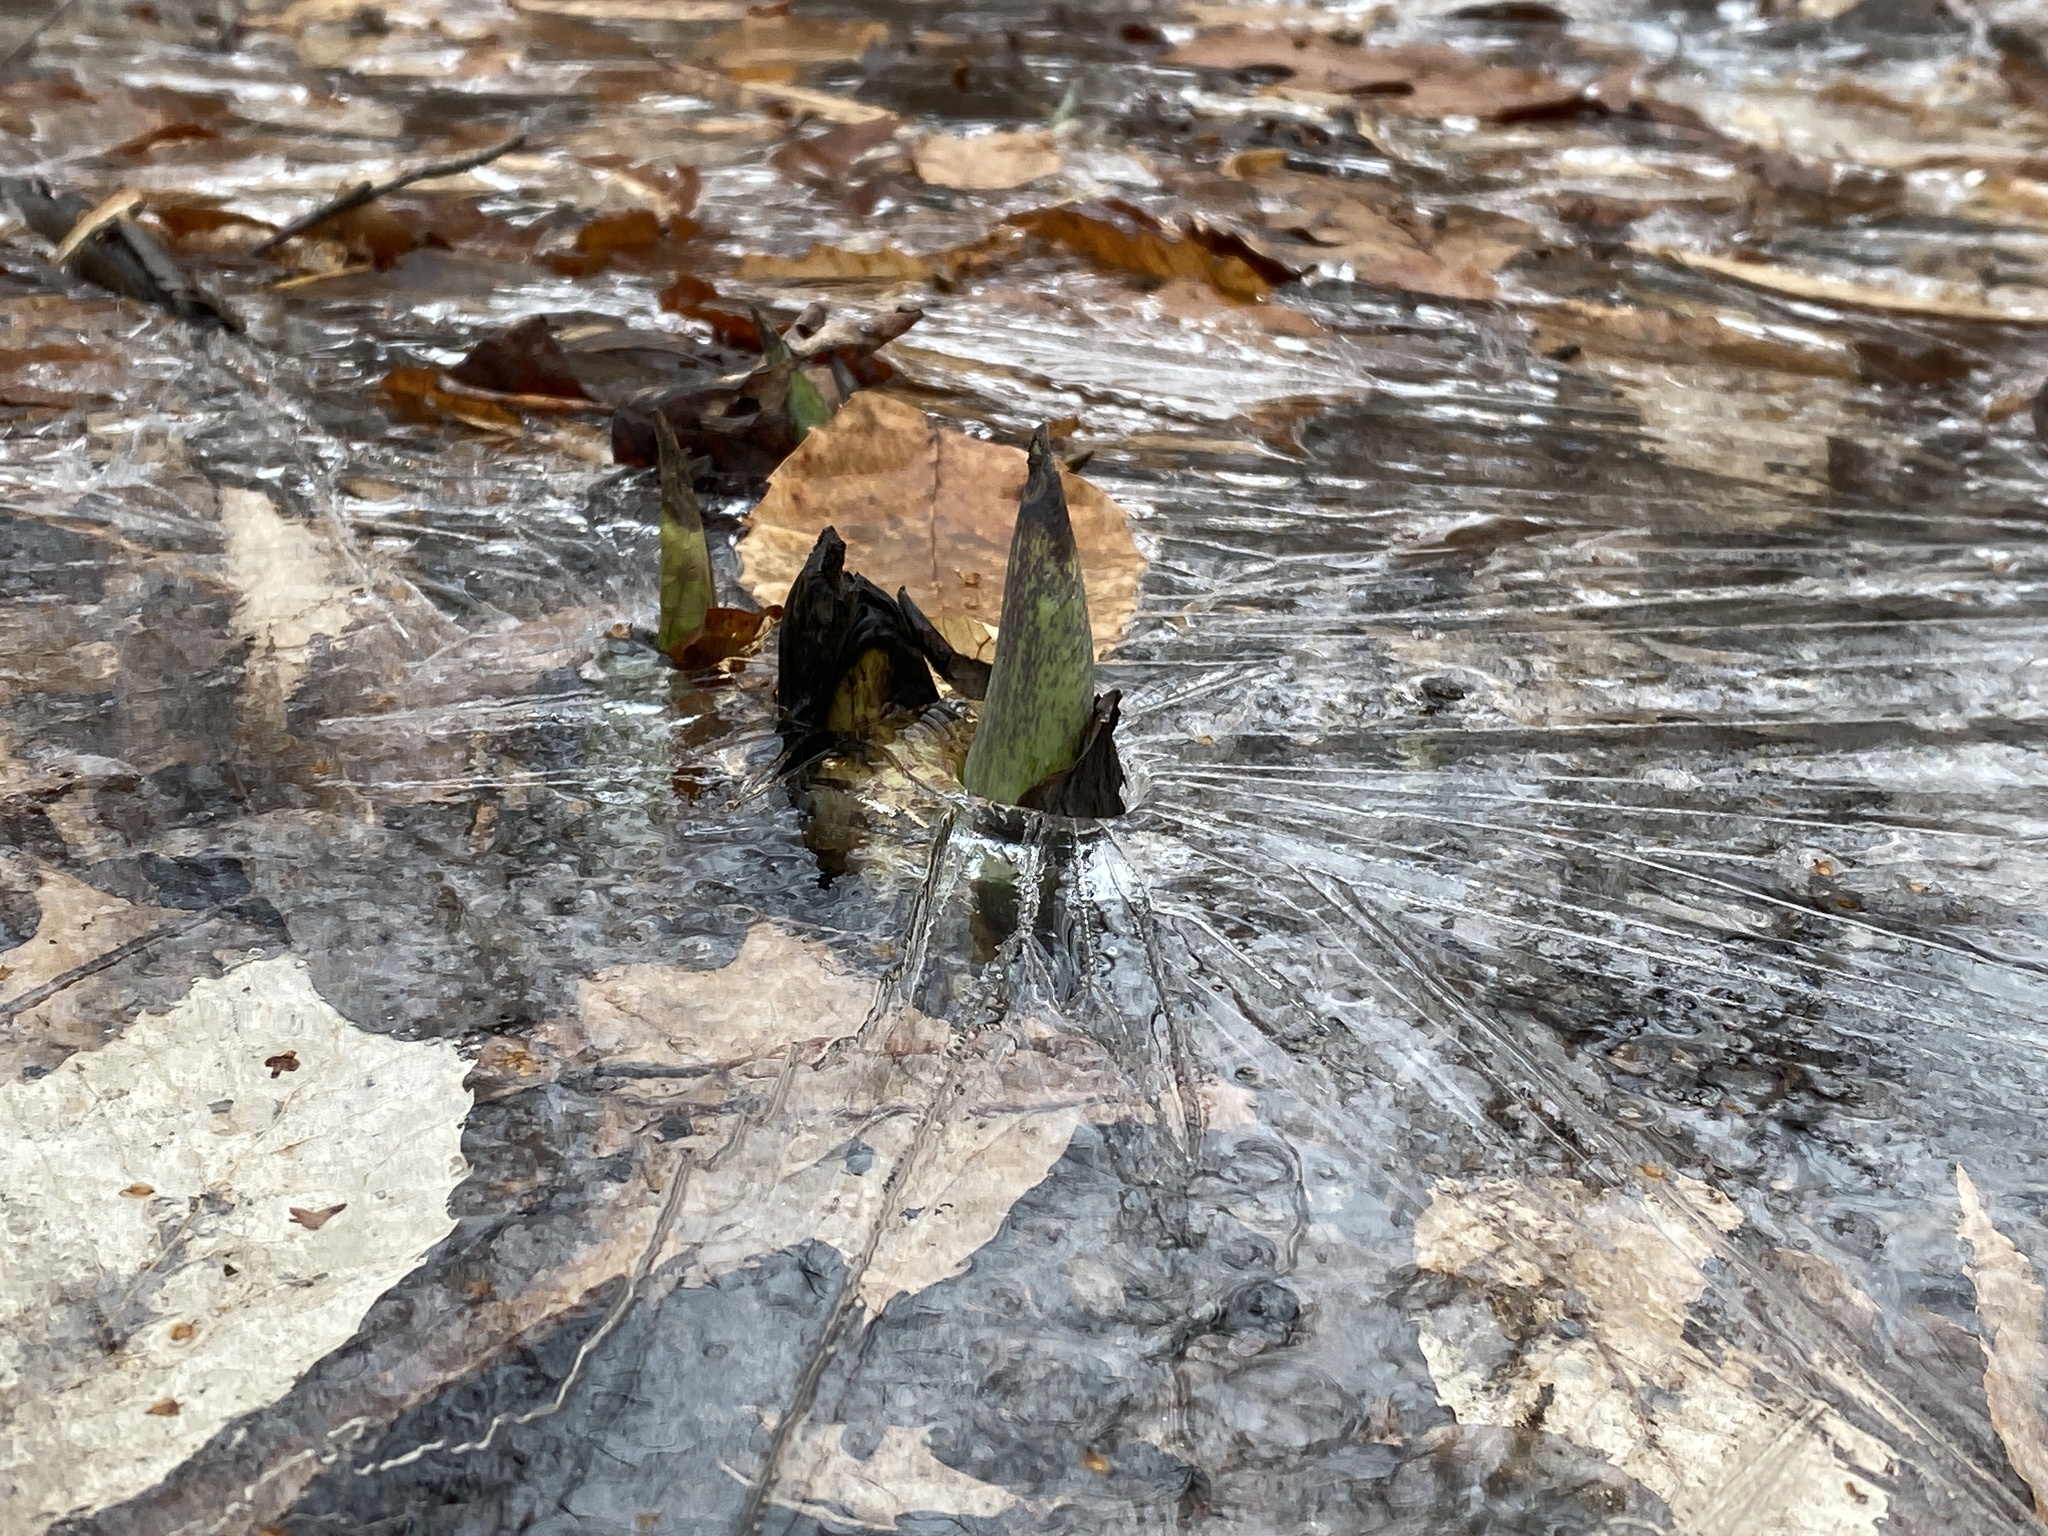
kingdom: Plantae
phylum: Tracheophyta
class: Liliopsida
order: Alismatales
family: Araceae
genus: Symplocarpus
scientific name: Symplocarpus foetidus
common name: Eastern skunk cabbage
